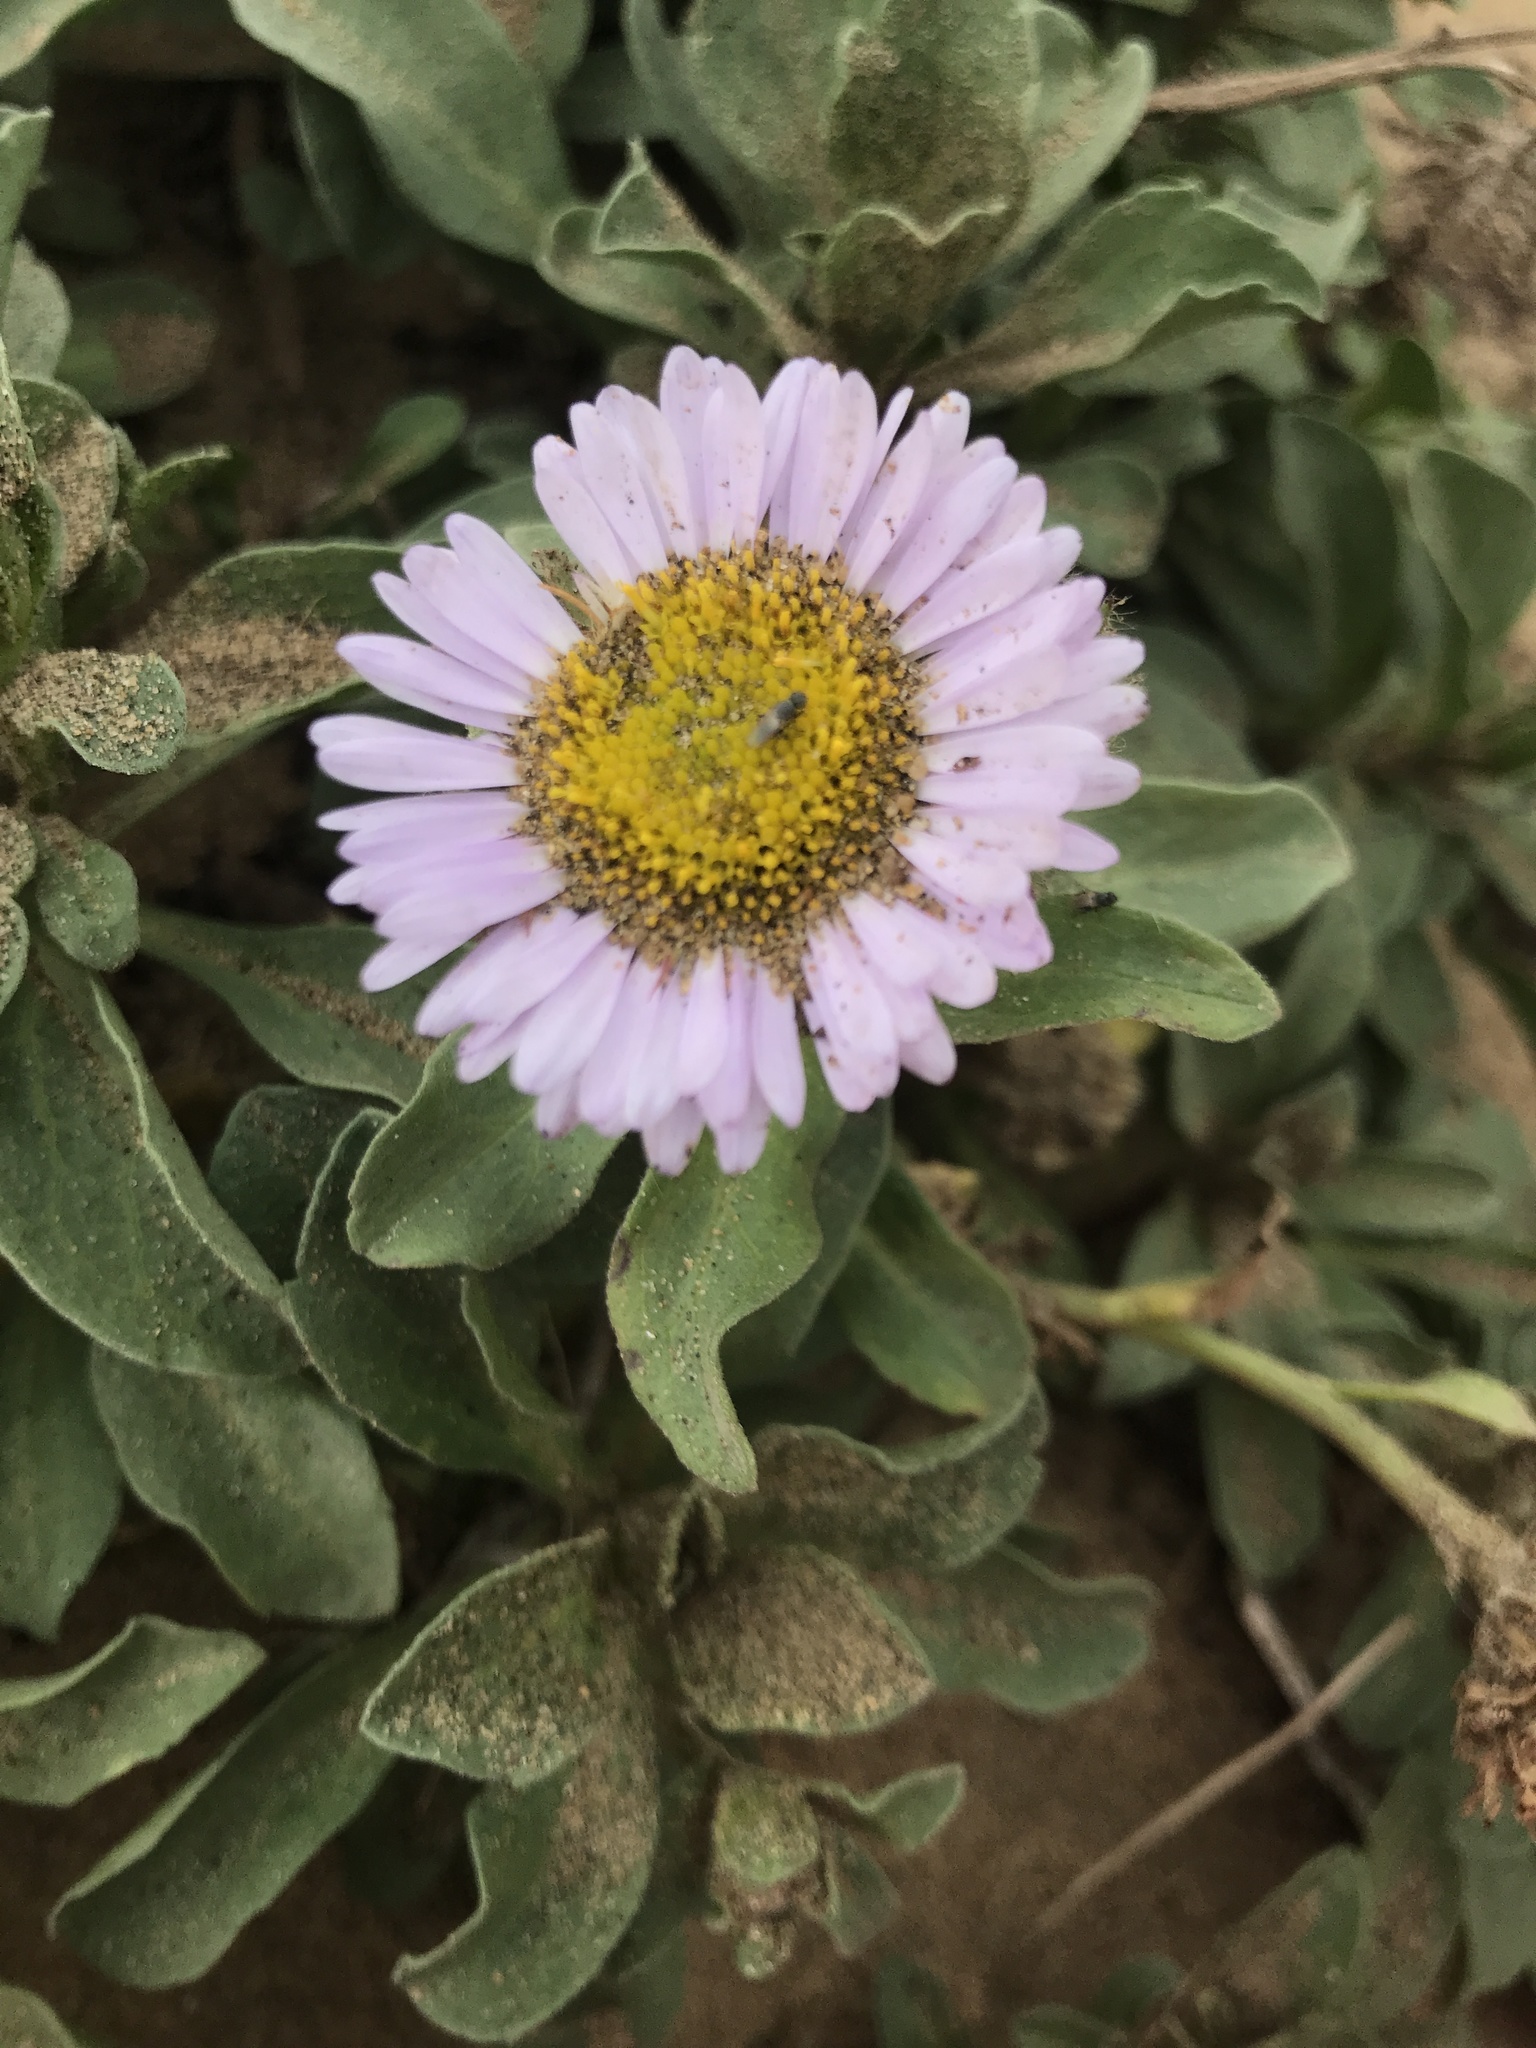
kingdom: Plantae
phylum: Tracheophyta
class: Magnoliopsida
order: Asterales
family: Asteraceae
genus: Erigeron
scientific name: Erigeron glaucus
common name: Seaside daisy
